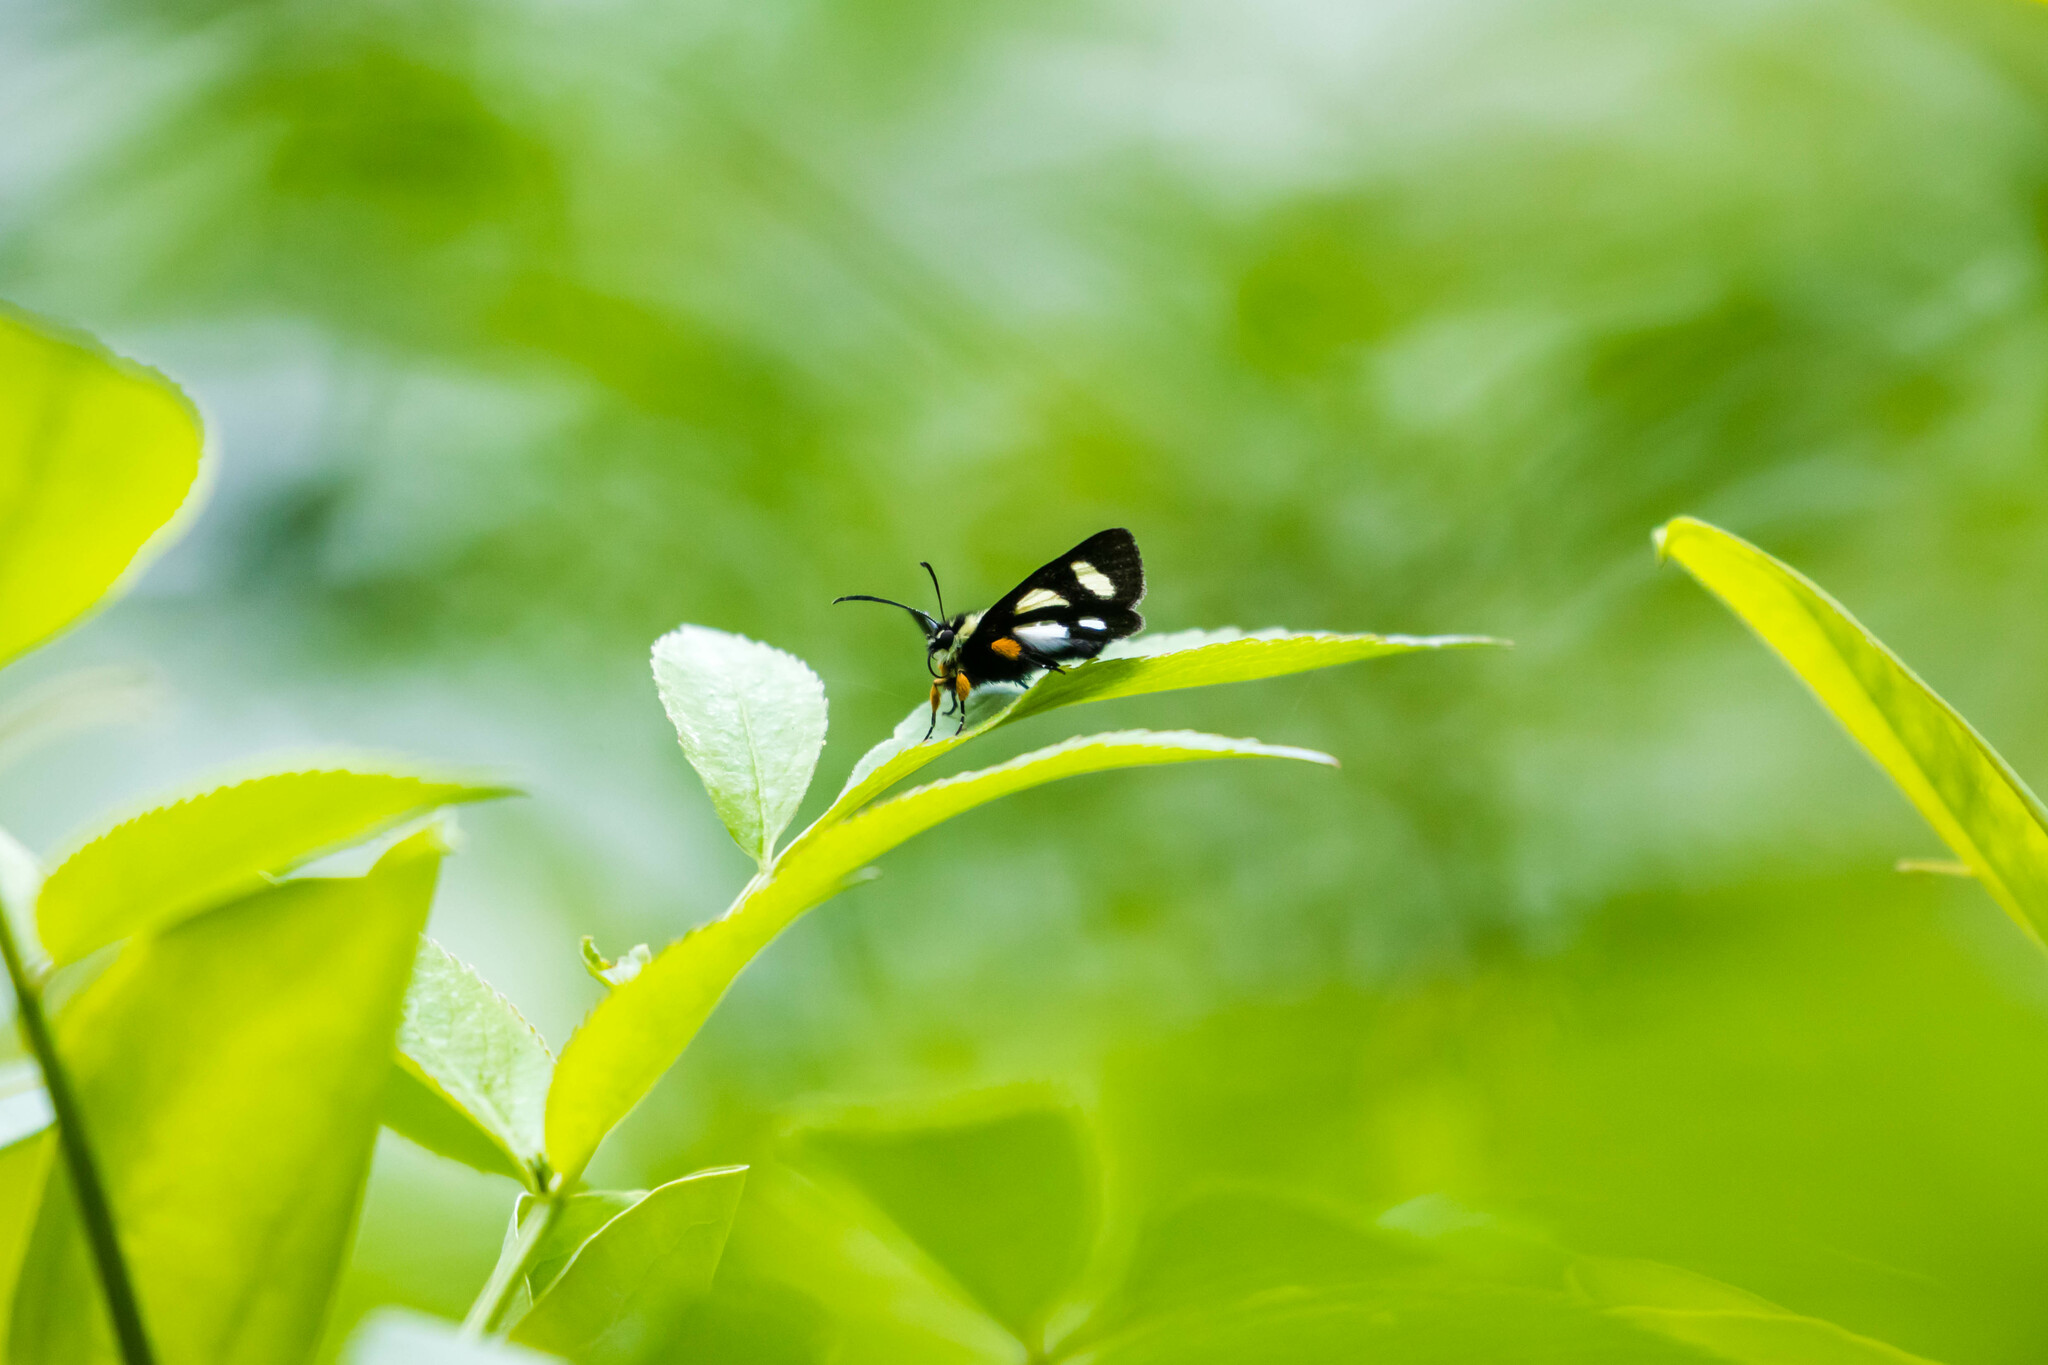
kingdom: Animalia
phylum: Arthropoda
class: Insecta
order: Lepidoptera
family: Noctuidae
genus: Alypia
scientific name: Alypia octomaculata
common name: Eight-spotted forester
